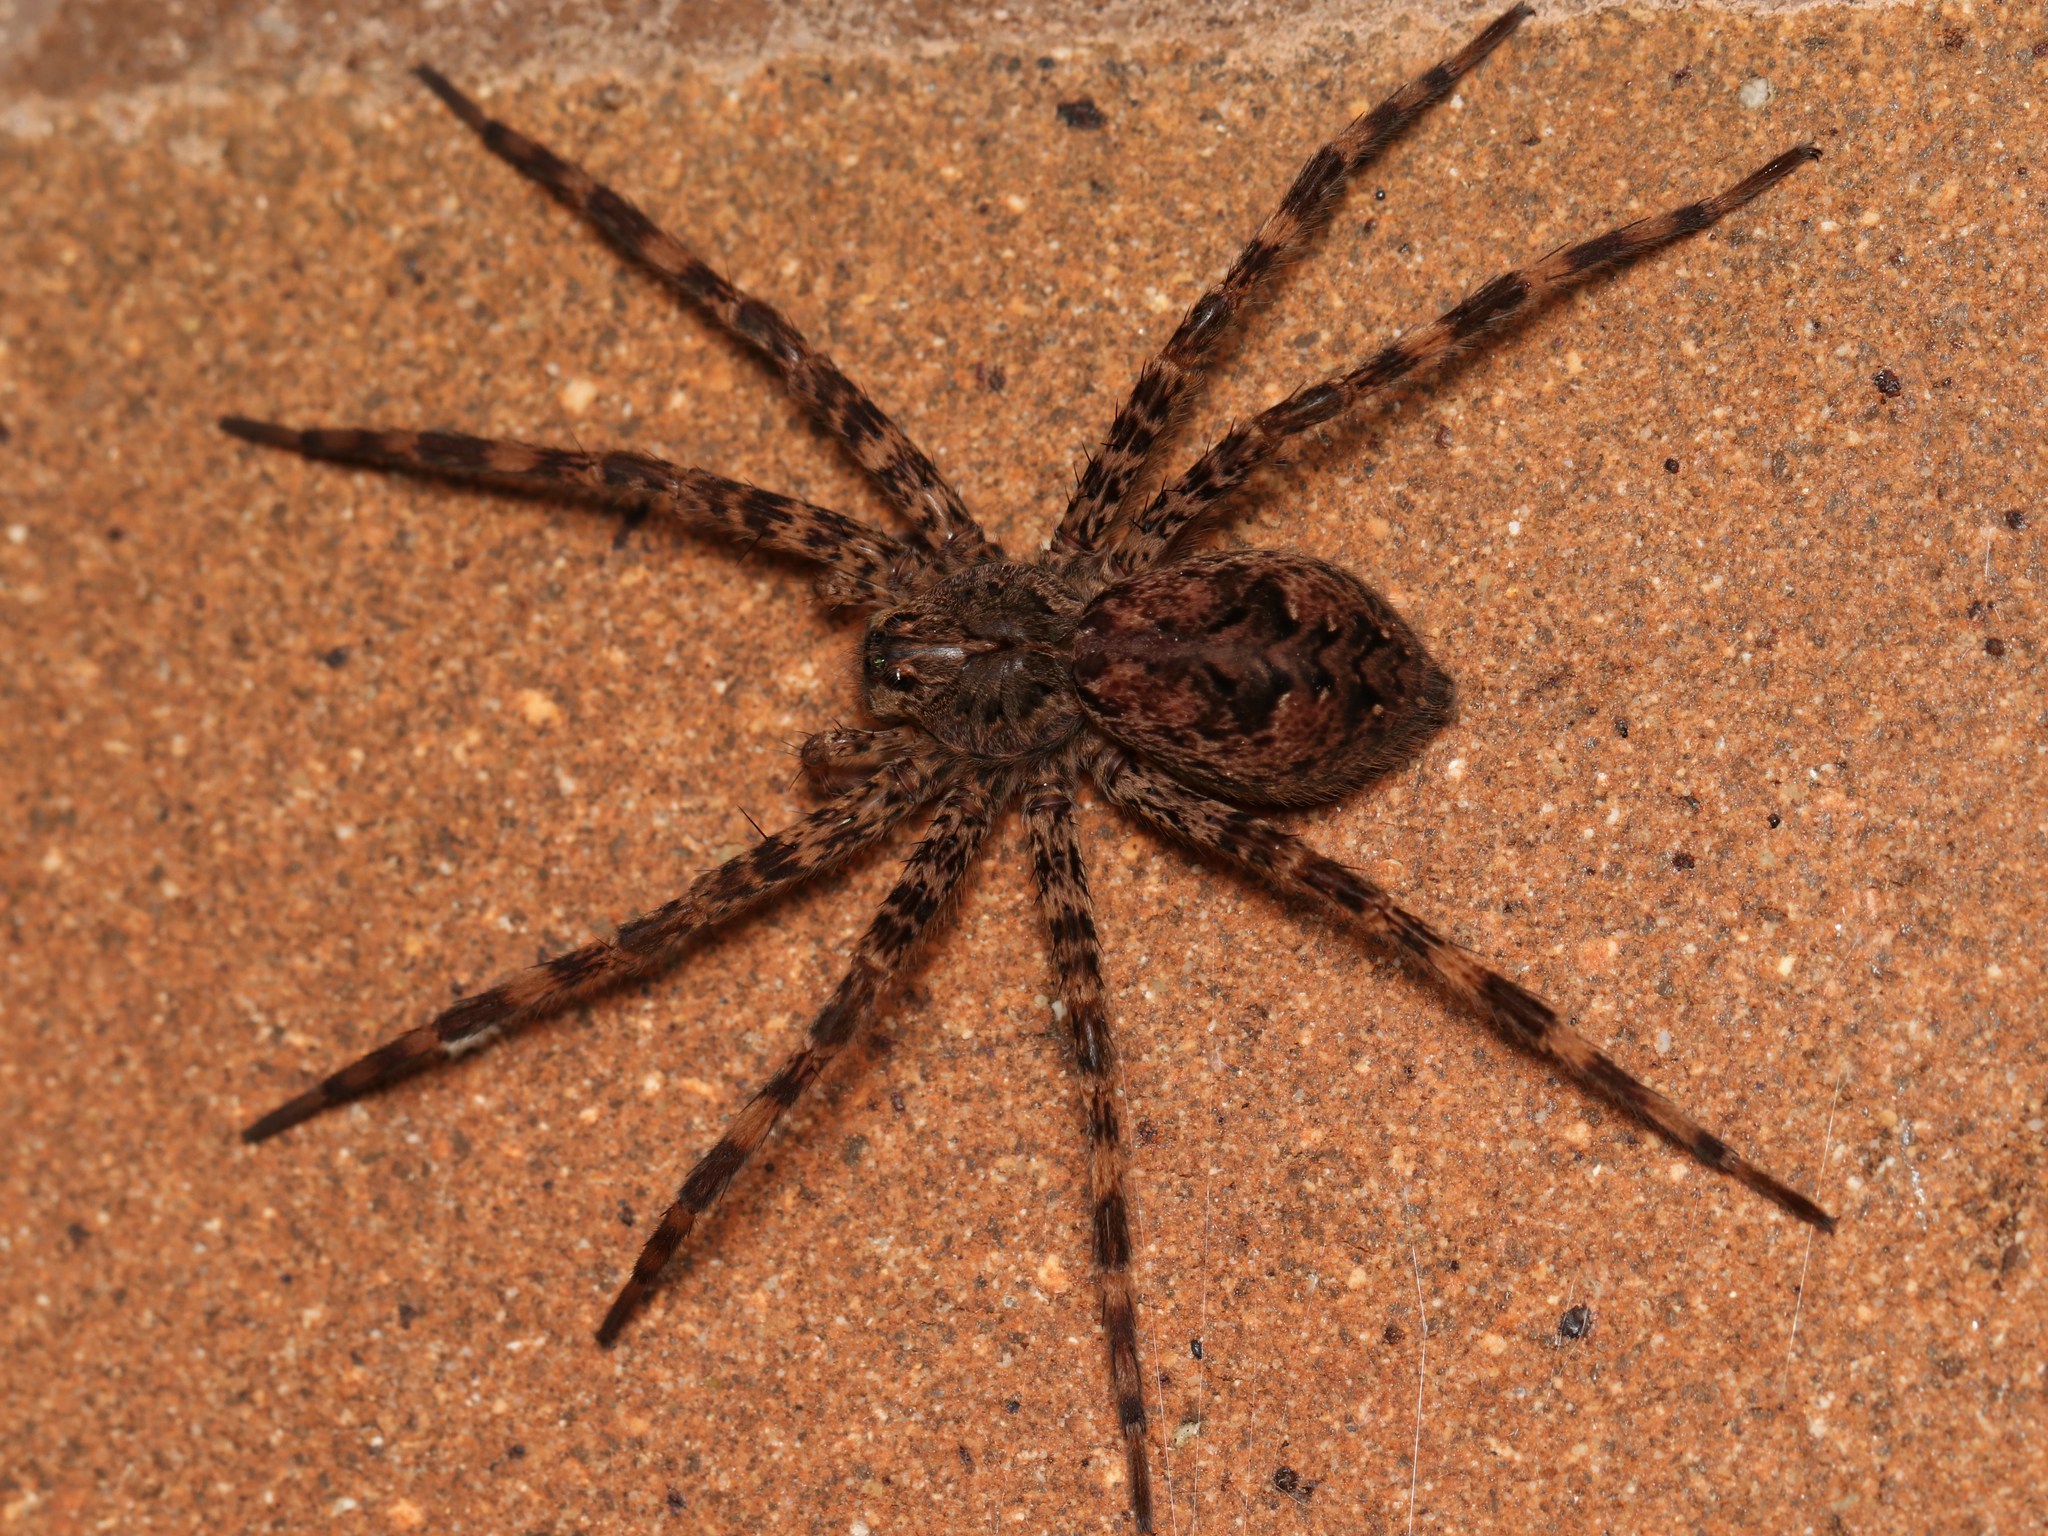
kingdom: Animalia
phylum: Arthropoda
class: Arachnida
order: Araneae
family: Pisauridae
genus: Dolomedes
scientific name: Dolomedes tenebrosus
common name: Dark fishing spider
